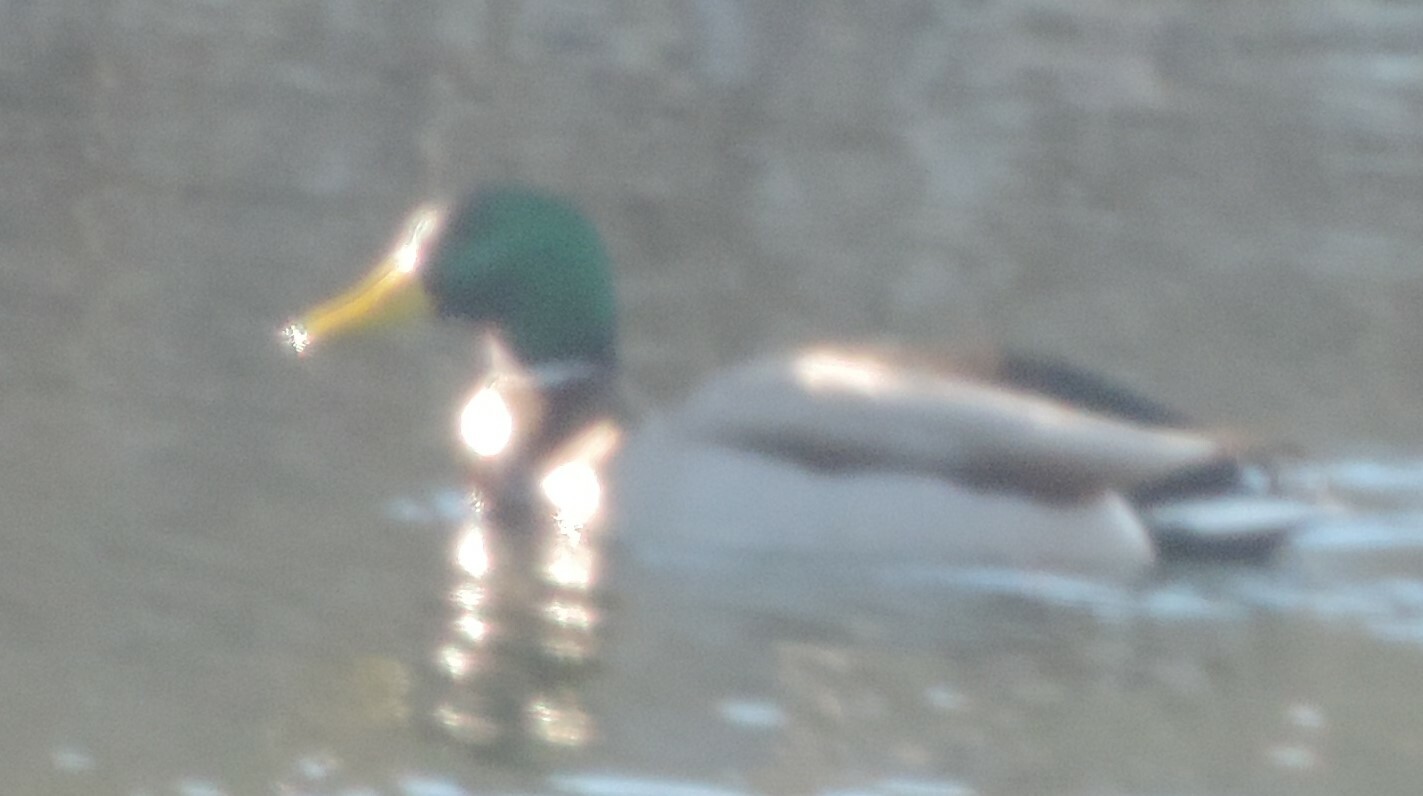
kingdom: Animalia
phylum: Chordata
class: Aves
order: Anseriformes
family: Anatidae
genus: Anas
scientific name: Anas platyrhynchos
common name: Mallard
